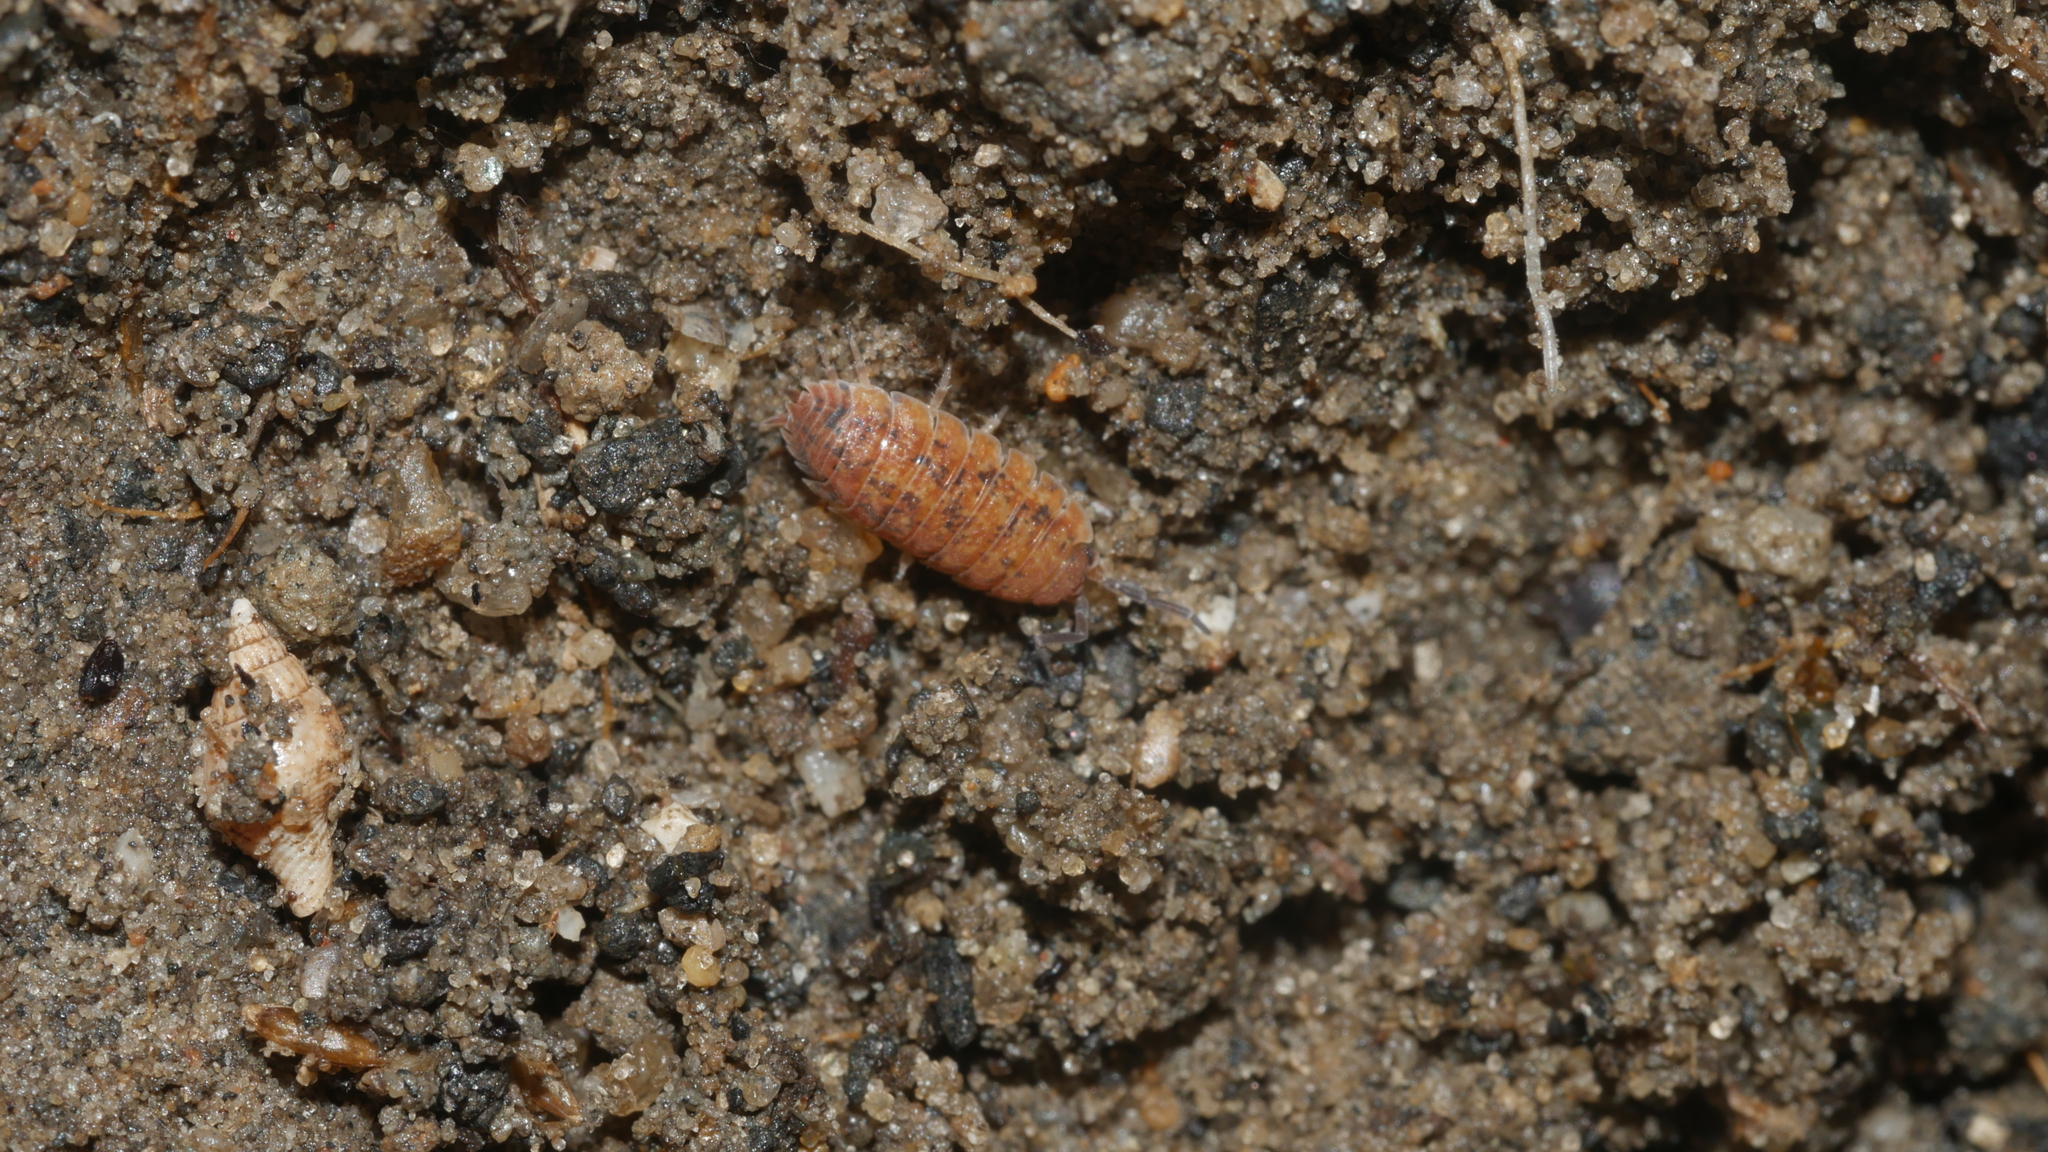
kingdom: Animalia
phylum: Arthropoda
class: Malacostraca
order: Isopoda
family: Porcellionidae
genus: Porcellio
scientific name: Porcellio scaber
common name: Common rough woodlouse
